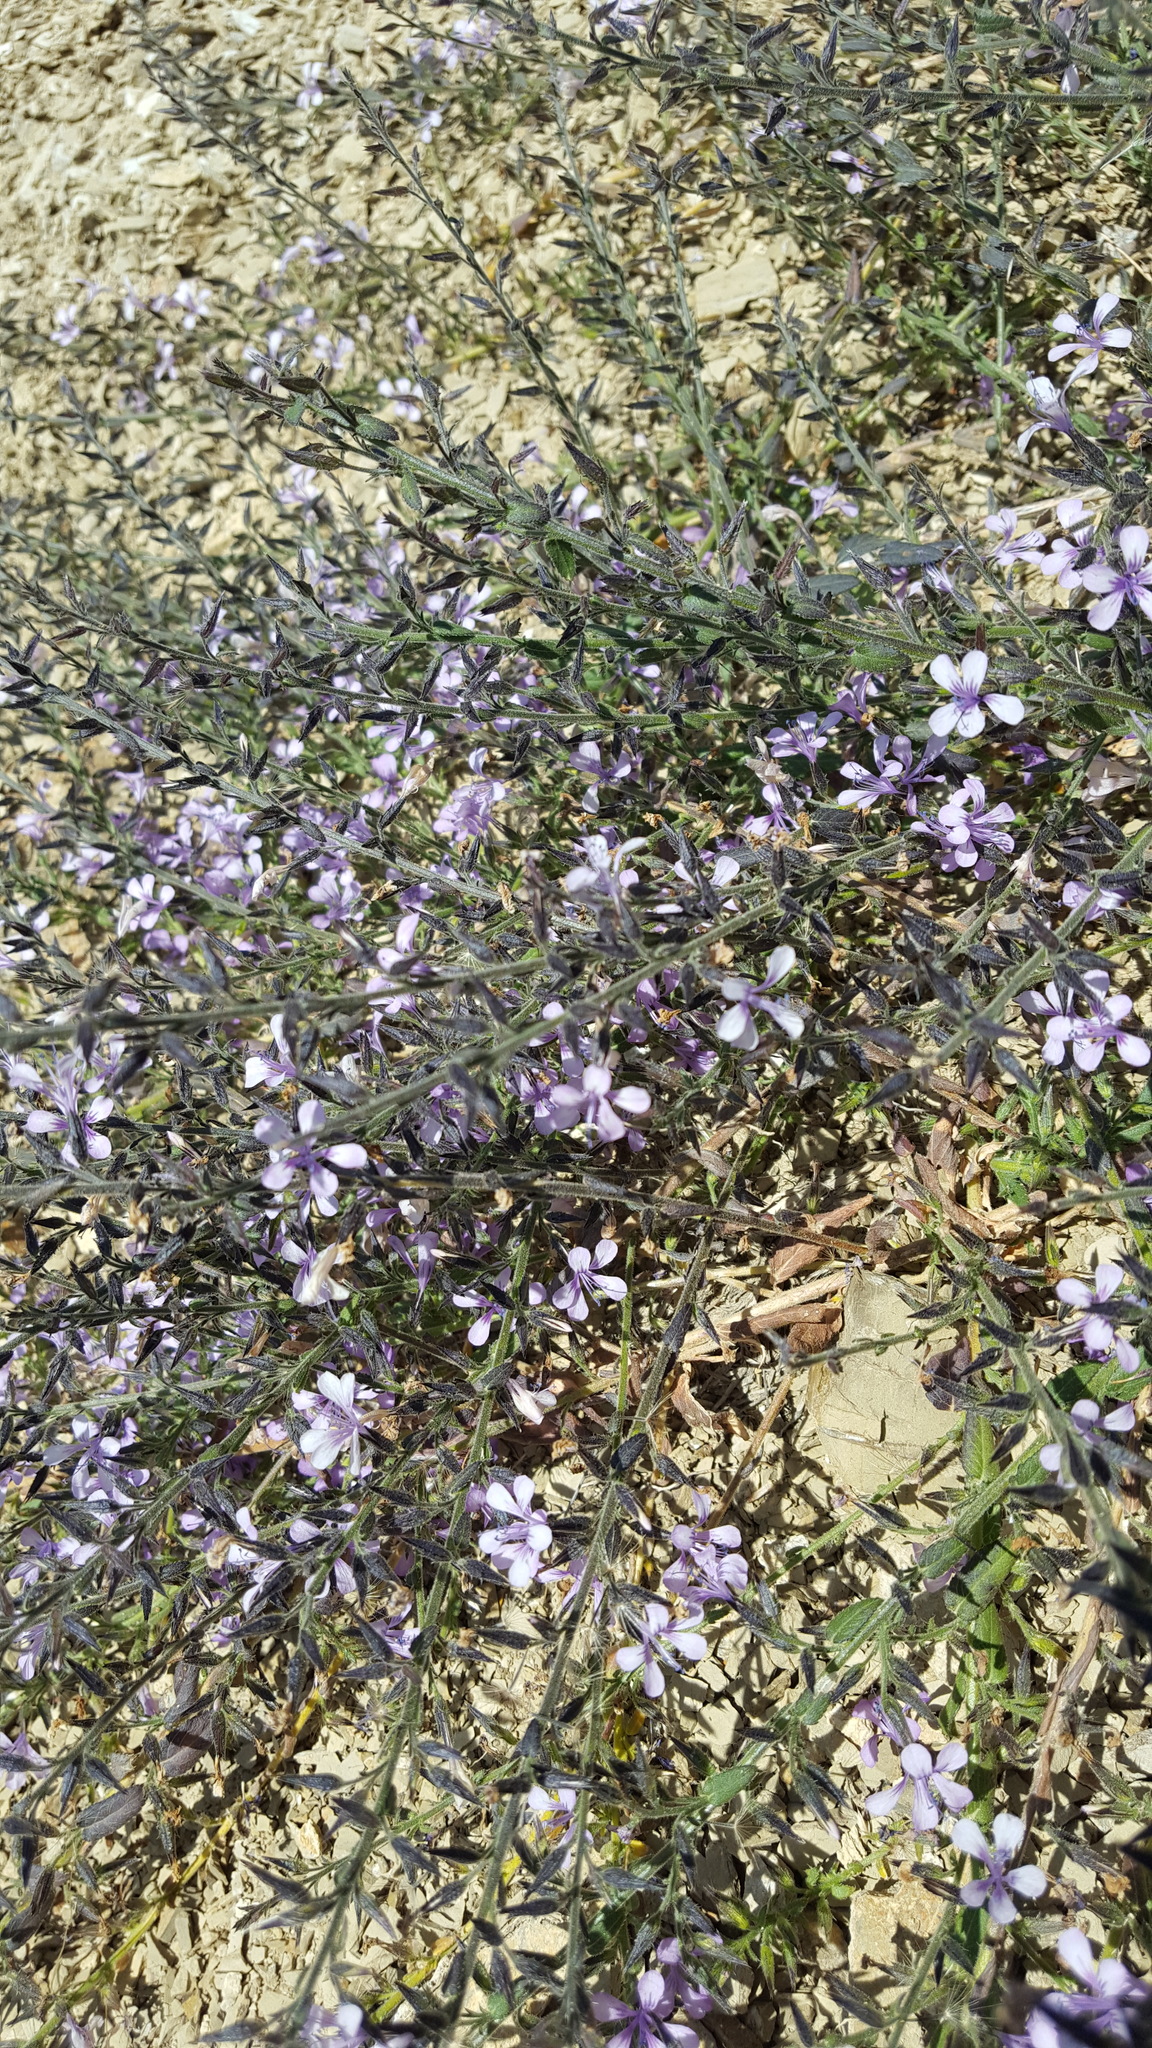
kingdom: Plantae
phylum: Tracheophyta
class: Magnoliopsida
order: Ericales
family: Polemoniaceae
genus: Loeselia
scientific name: Loeselia pumila
